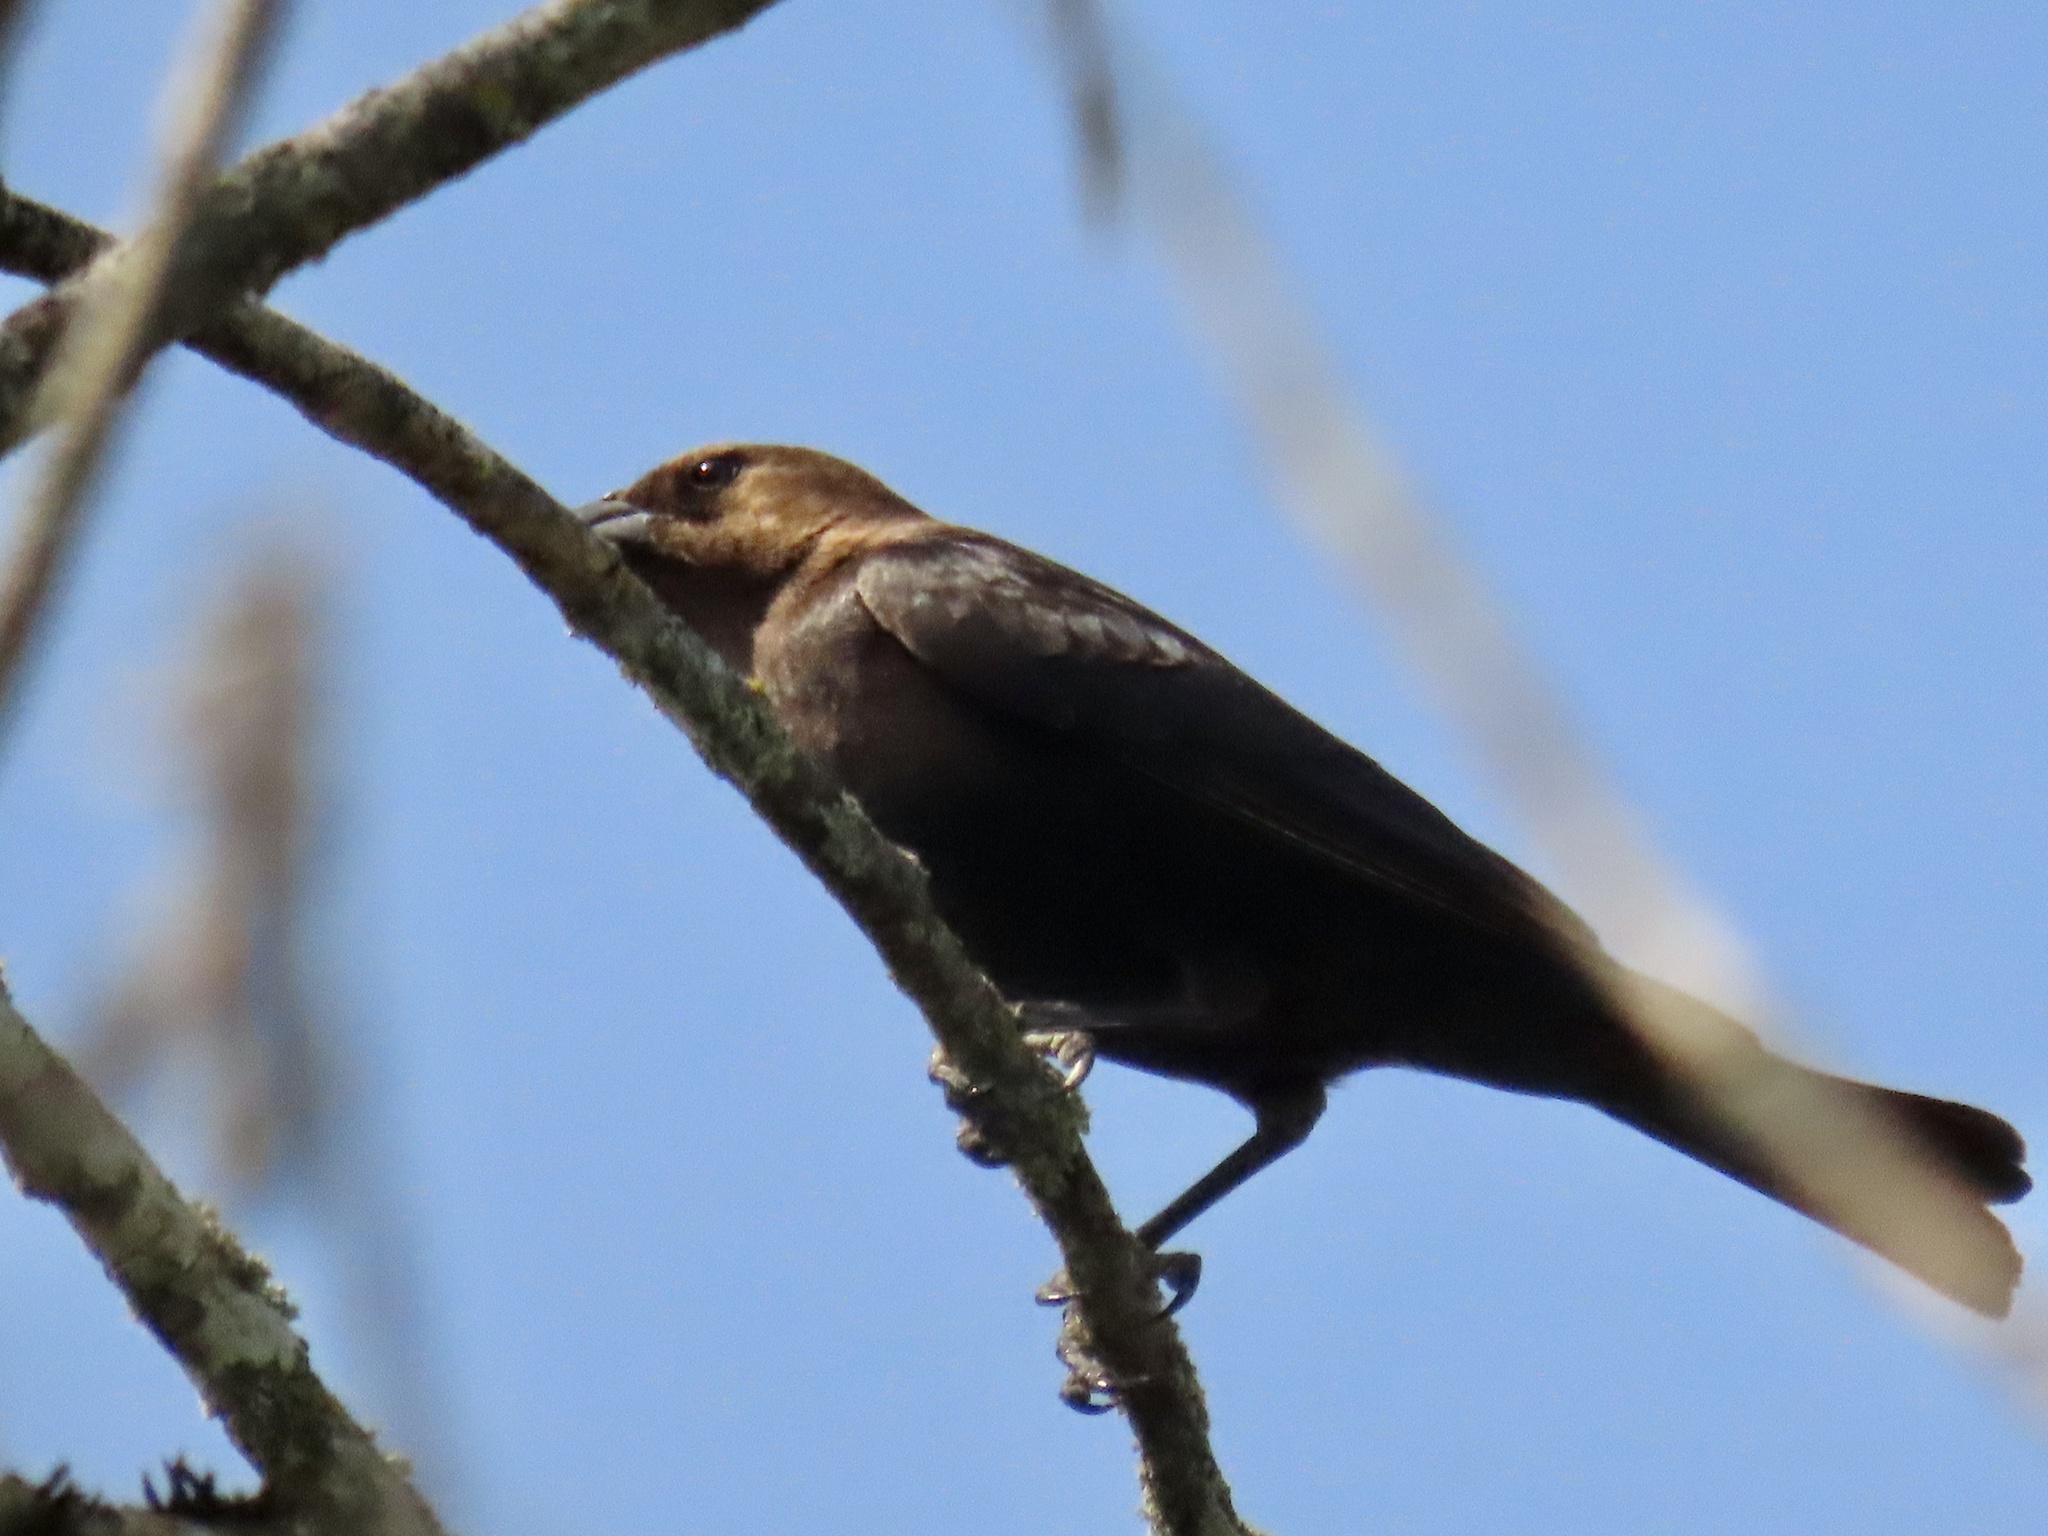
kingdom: Animalia
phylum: Chordata
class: Aves
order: Passeriformes
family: Icteridae
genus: Molothrus
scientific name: Molothrus ater
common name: Brown-headed cowbird
